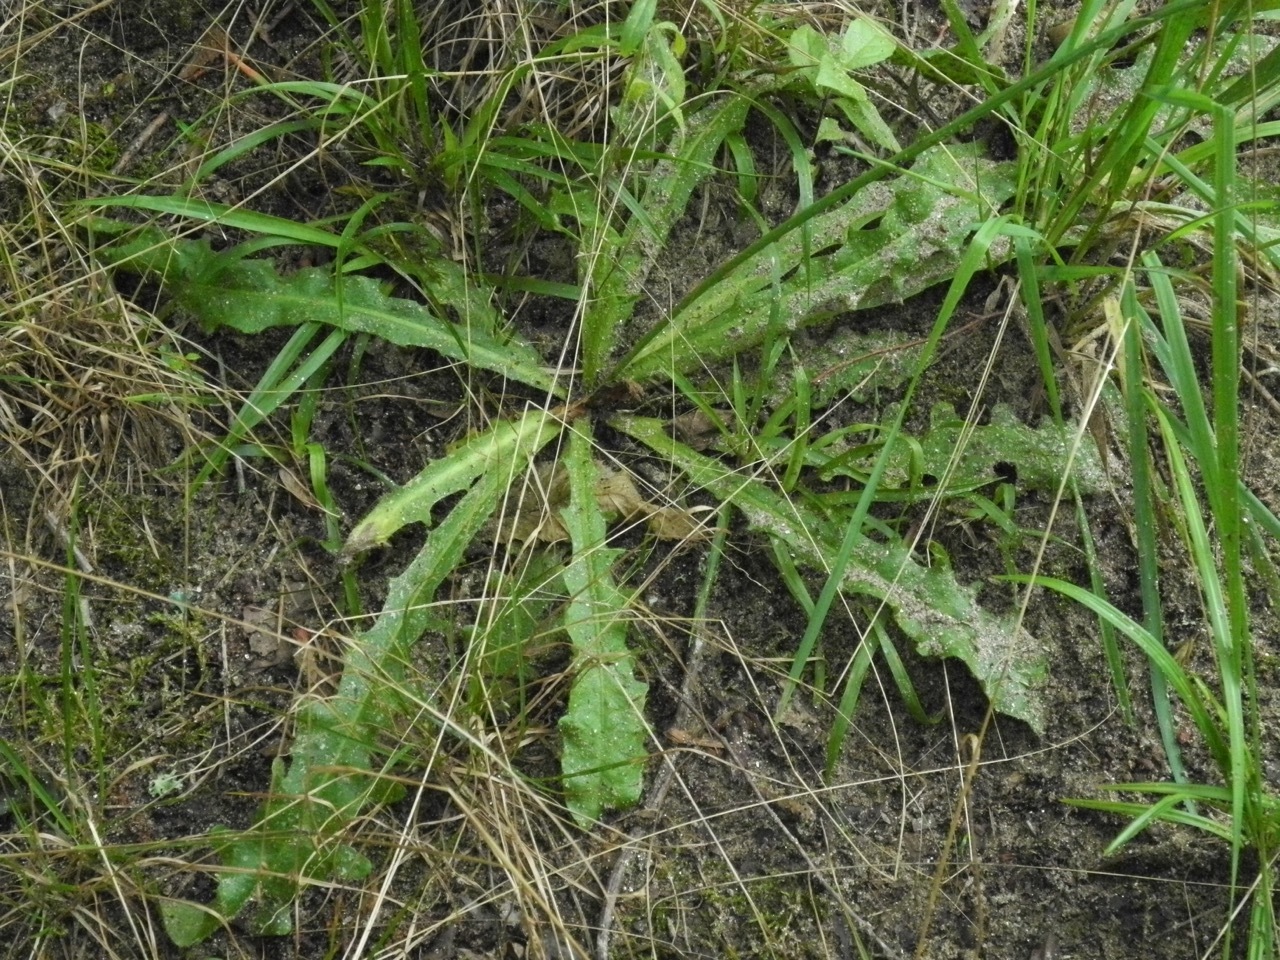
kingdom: Plantae
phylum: Tracheophyta
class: Magnoliopsida
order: Asterales
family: Asteraceae
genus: Hypochaeris
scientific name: Hypochaeris radicata
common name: Flatweed
